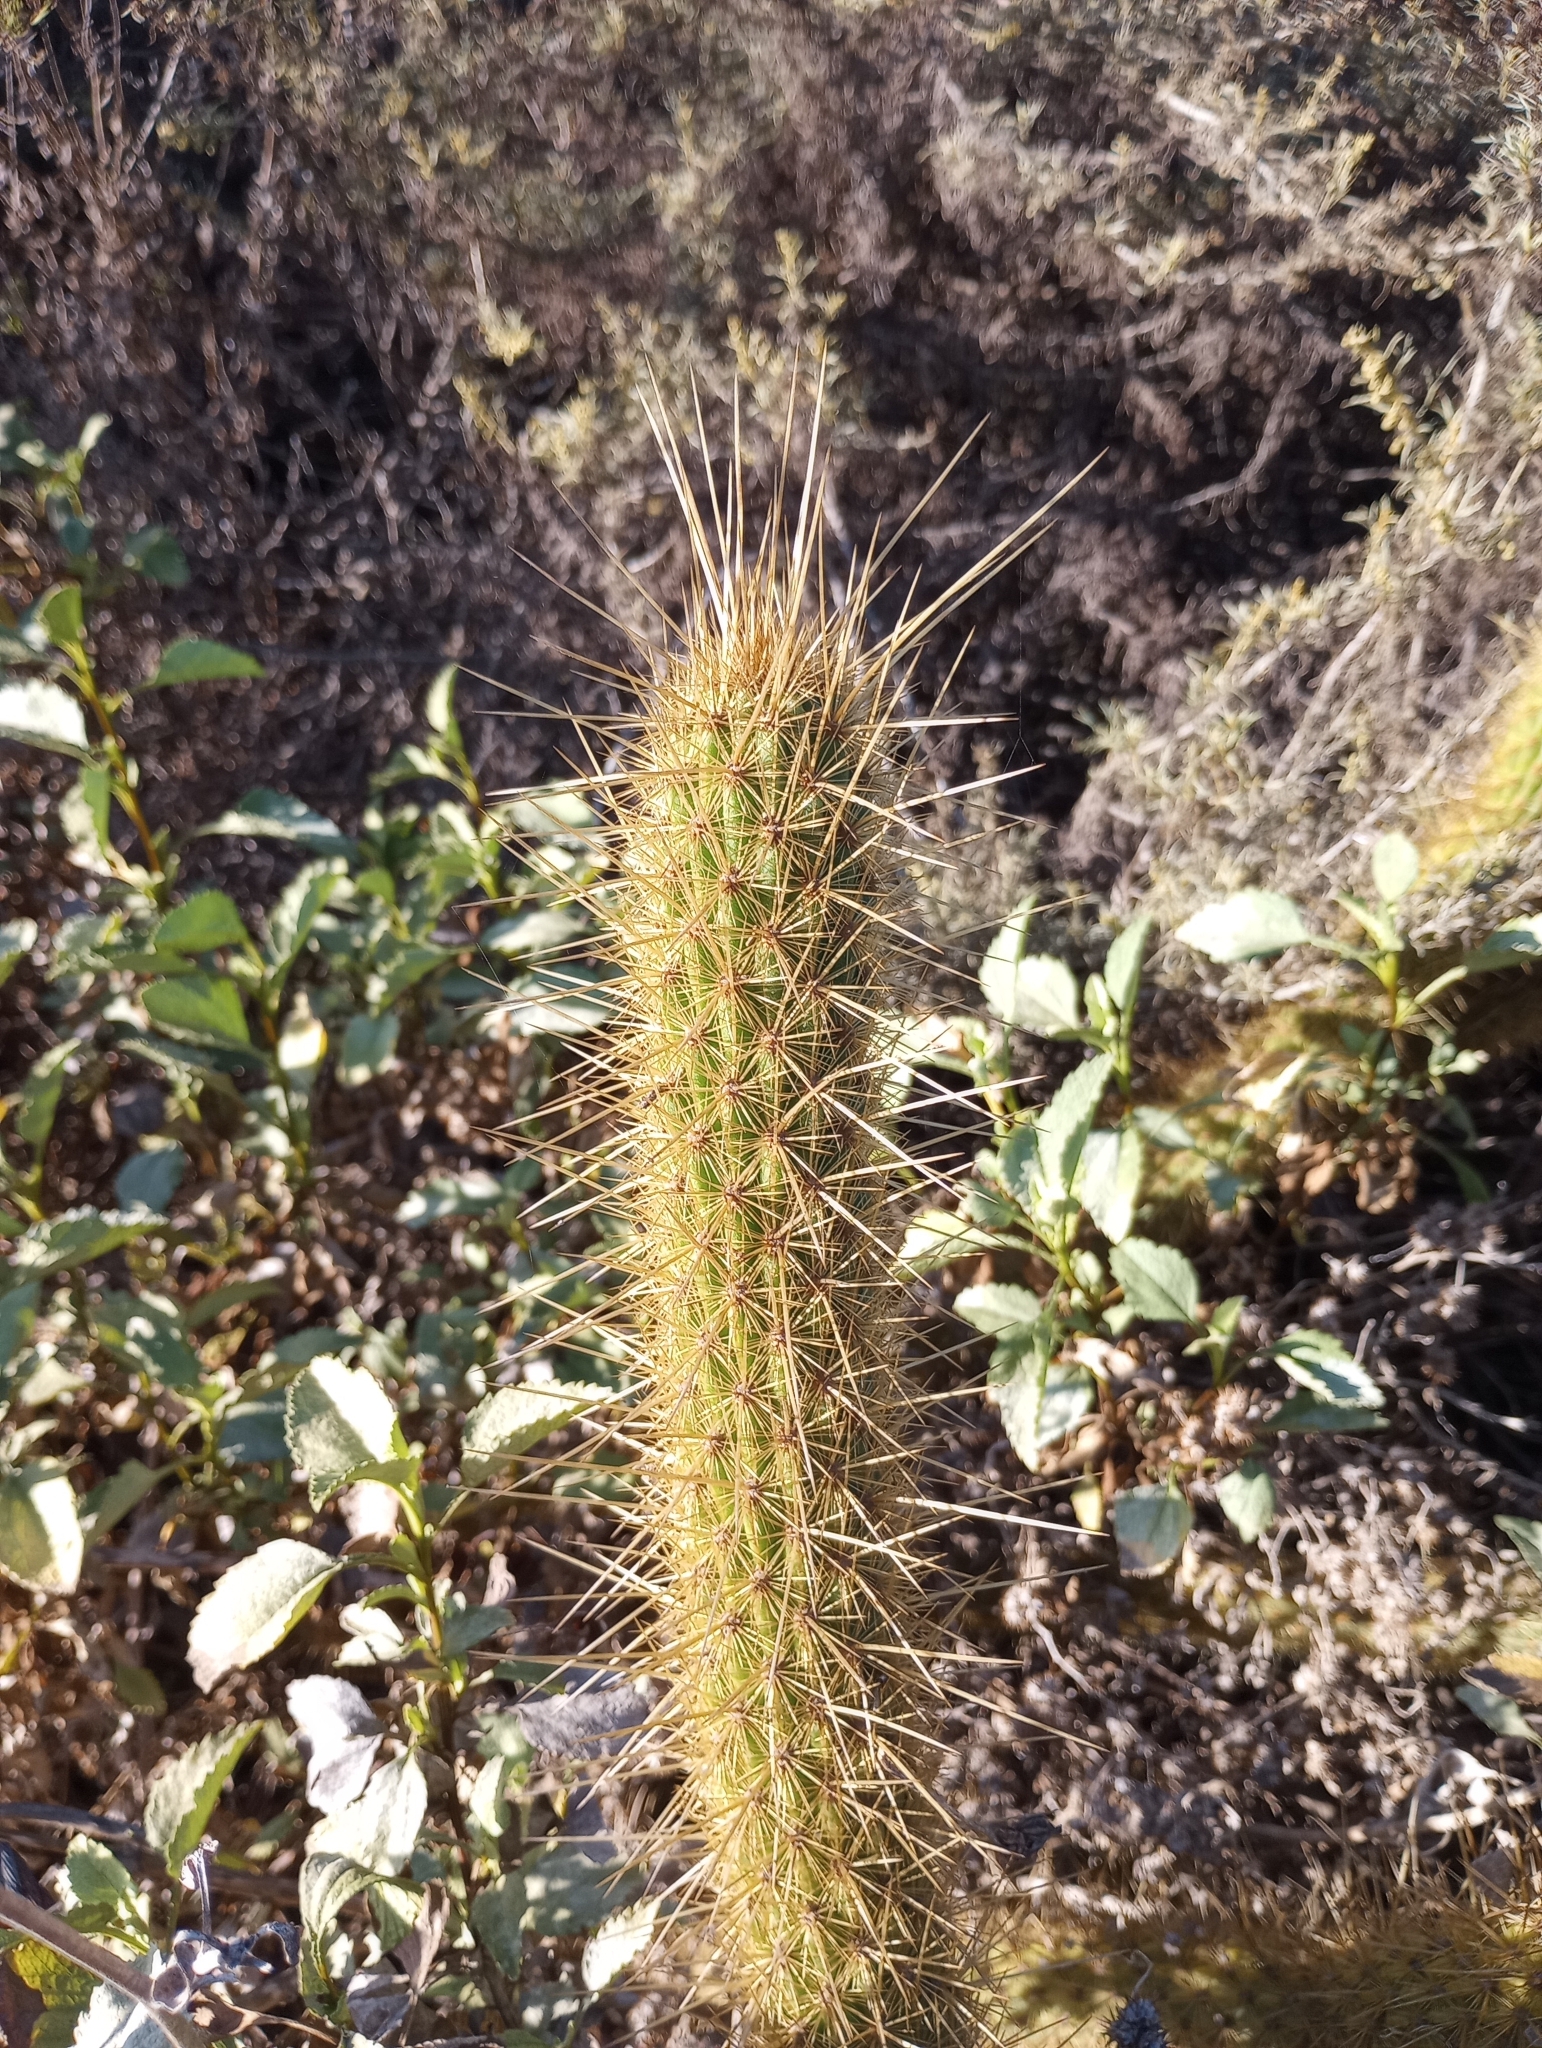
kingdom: Plantae
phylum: Tracheophyta
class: Magnoliopsida
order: Caryophyllales
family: Cactaceae
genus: Bergerocactus
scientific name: Bergerocactus emoryi
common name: Golden snakecactus
